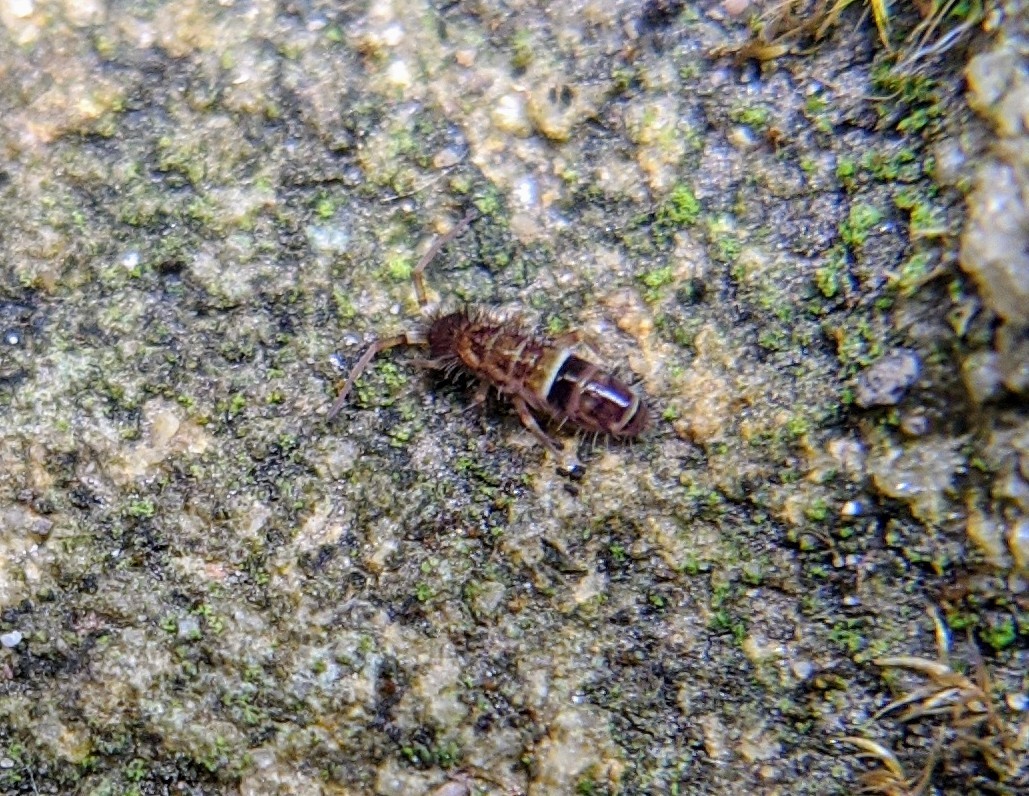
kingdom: Animalia
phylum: Arthropoda
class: Collembola
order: Entomobryomorpha
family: Orchesellidae
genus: Orchesella
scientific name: Orchesella cincta
